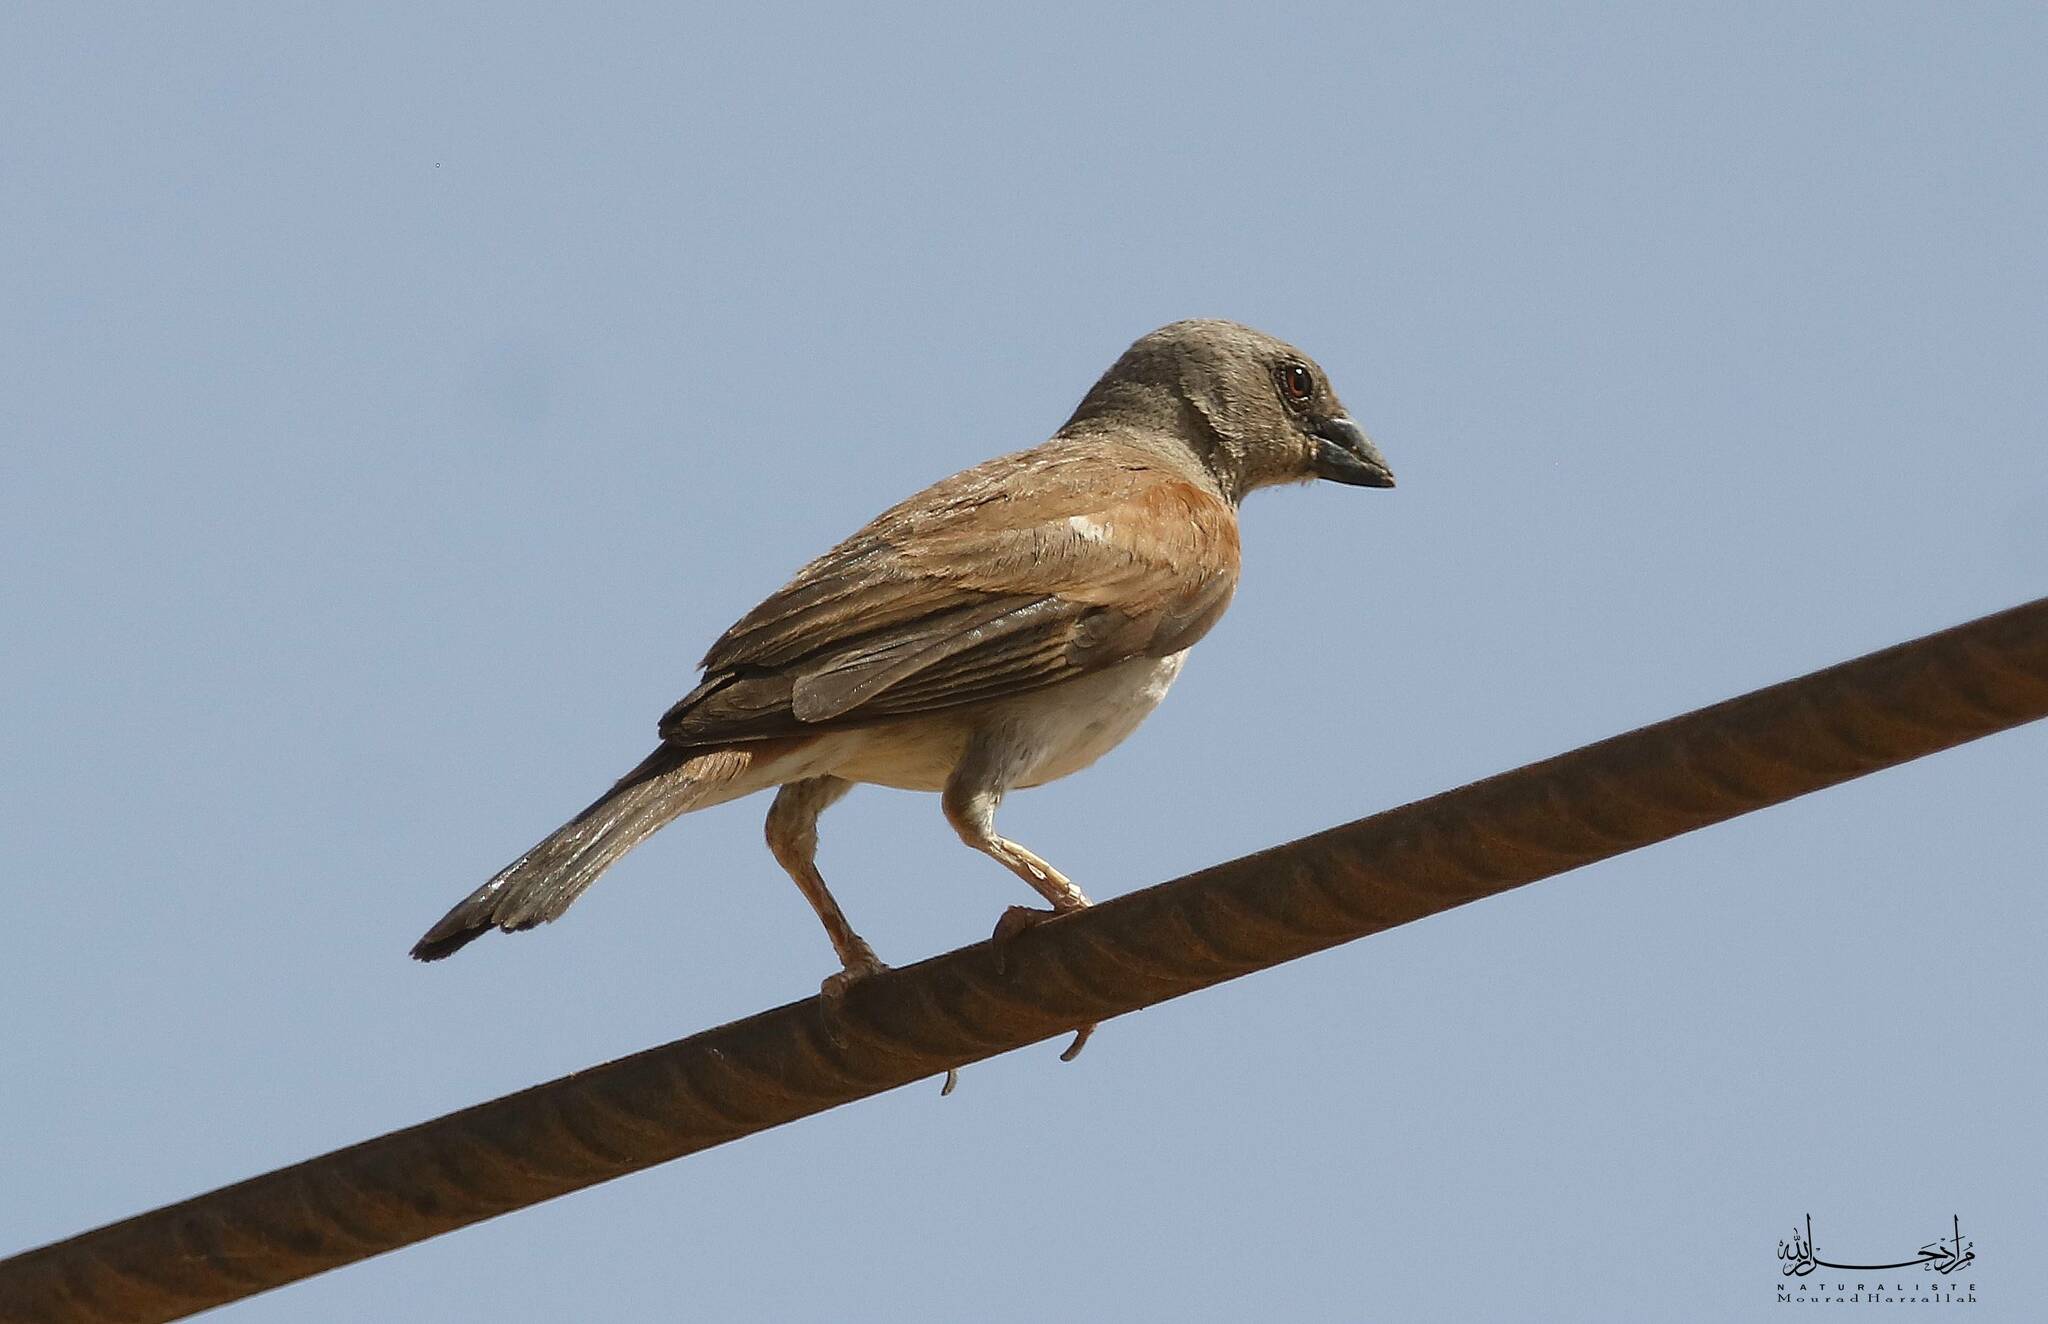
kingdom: Animalia
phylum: Chordata
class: Aves
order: Passeriformes
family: Passeridae
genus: Passer
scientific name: Passer griseus
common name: Northern grey-headed sparrow
